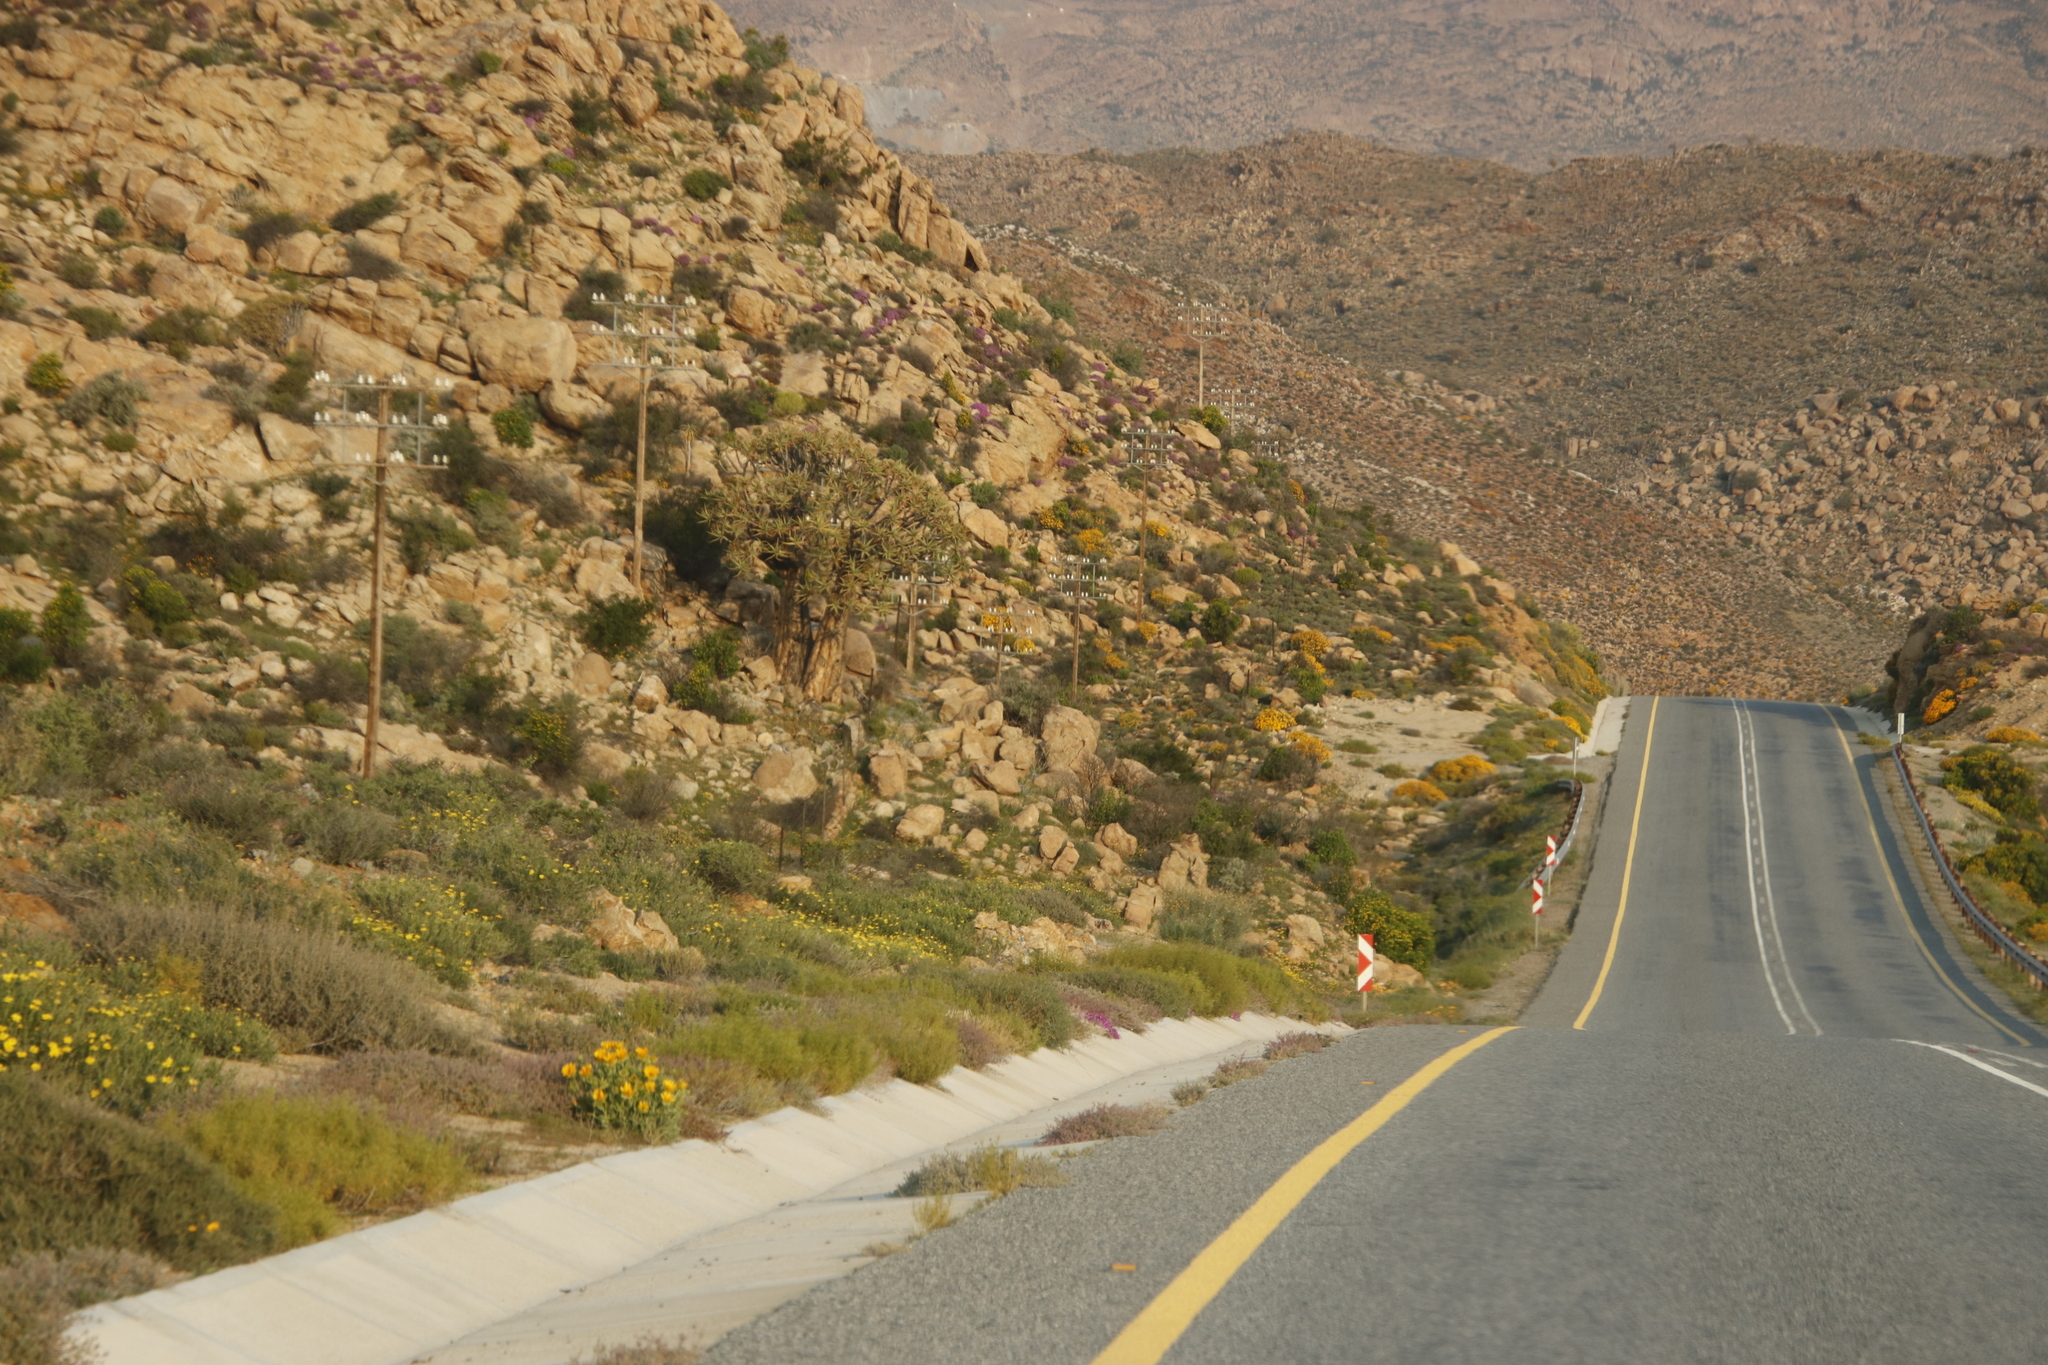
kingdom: Plantae
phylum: Tracheophyta
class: Liliopsida
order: Asparagales
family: Asphodelaceae
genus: Aloidendron
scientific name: Aloidendron dichotomum
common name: Quiver tree
